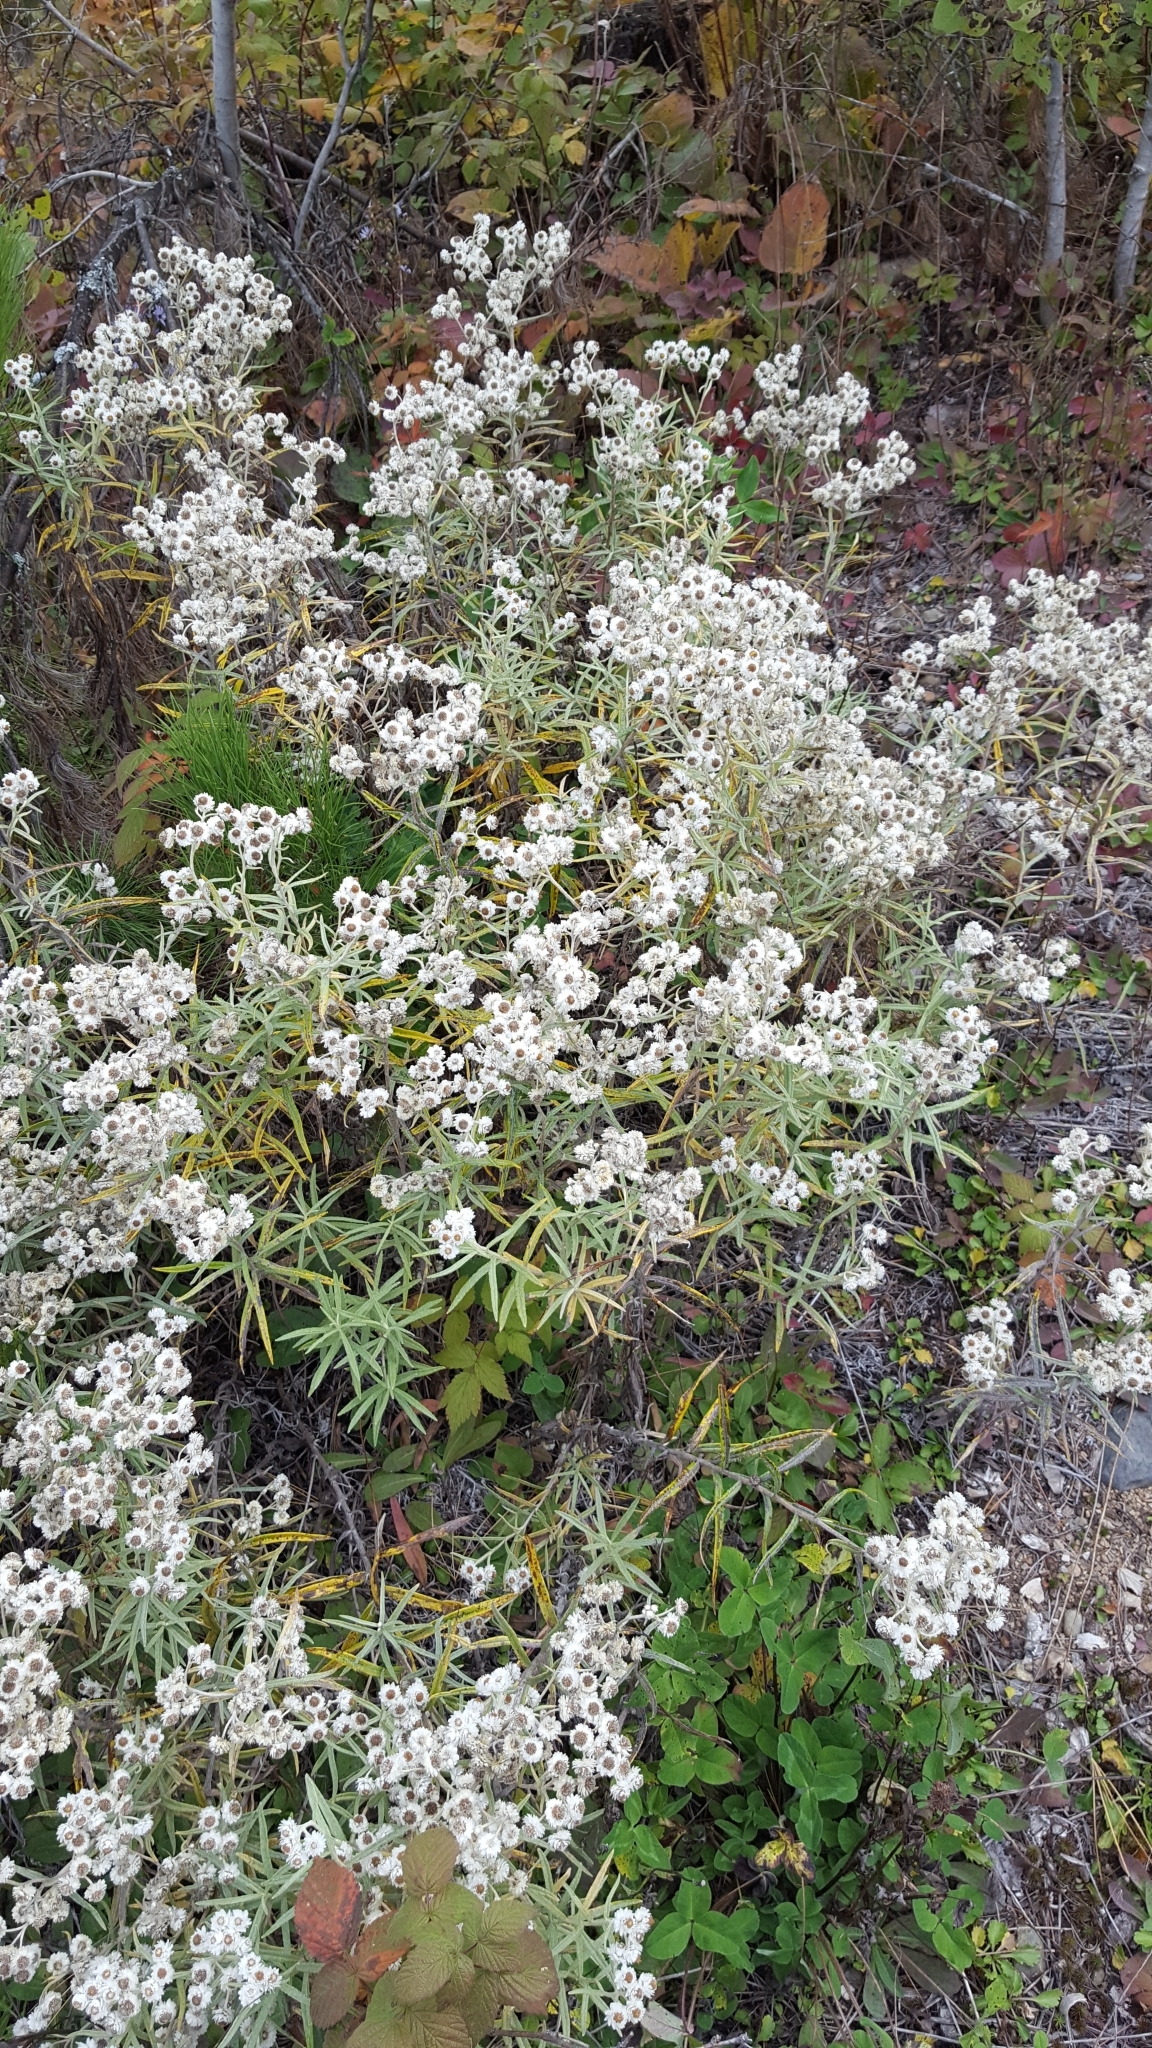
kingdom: Plantae
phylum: Tracheophyta
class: Magnoliopsida
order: Asterales
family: Asteraceae
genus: Anaphalis
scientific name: Anaphalis margaritacea
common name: Pearly everlasting
